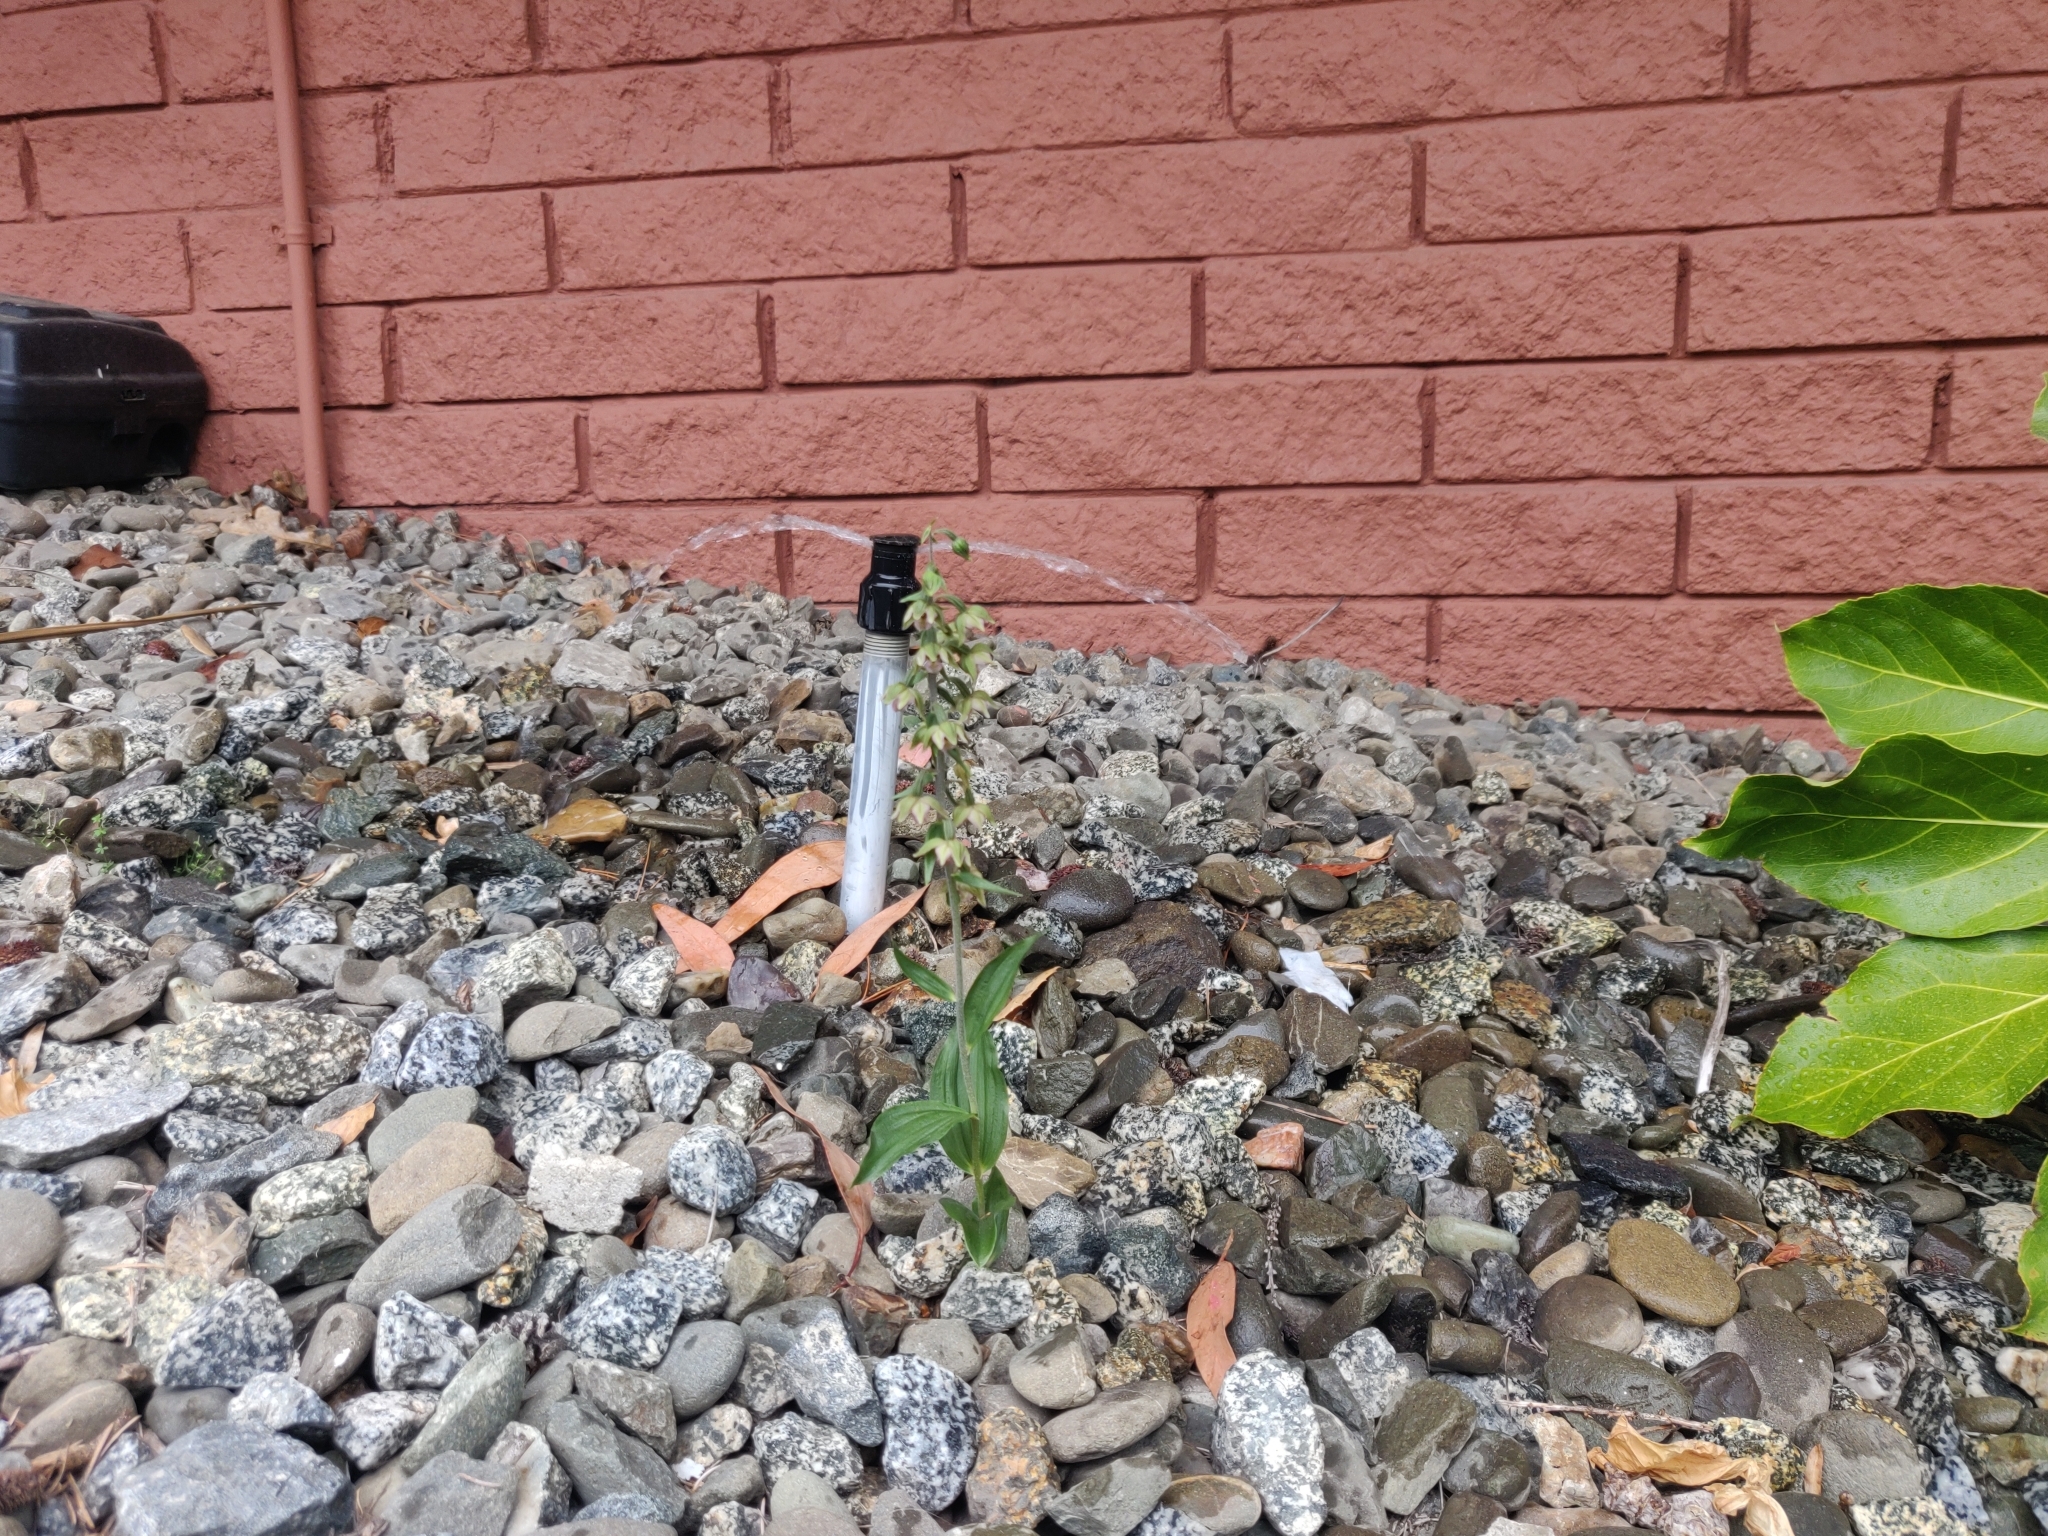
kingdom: Plantae
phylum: Tracheophyta
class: Liliopsida
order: Asparagales
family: Orchidaceae
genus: Epipactis
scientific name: Epipactis helleborine
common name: Broad-leaved helleborine
